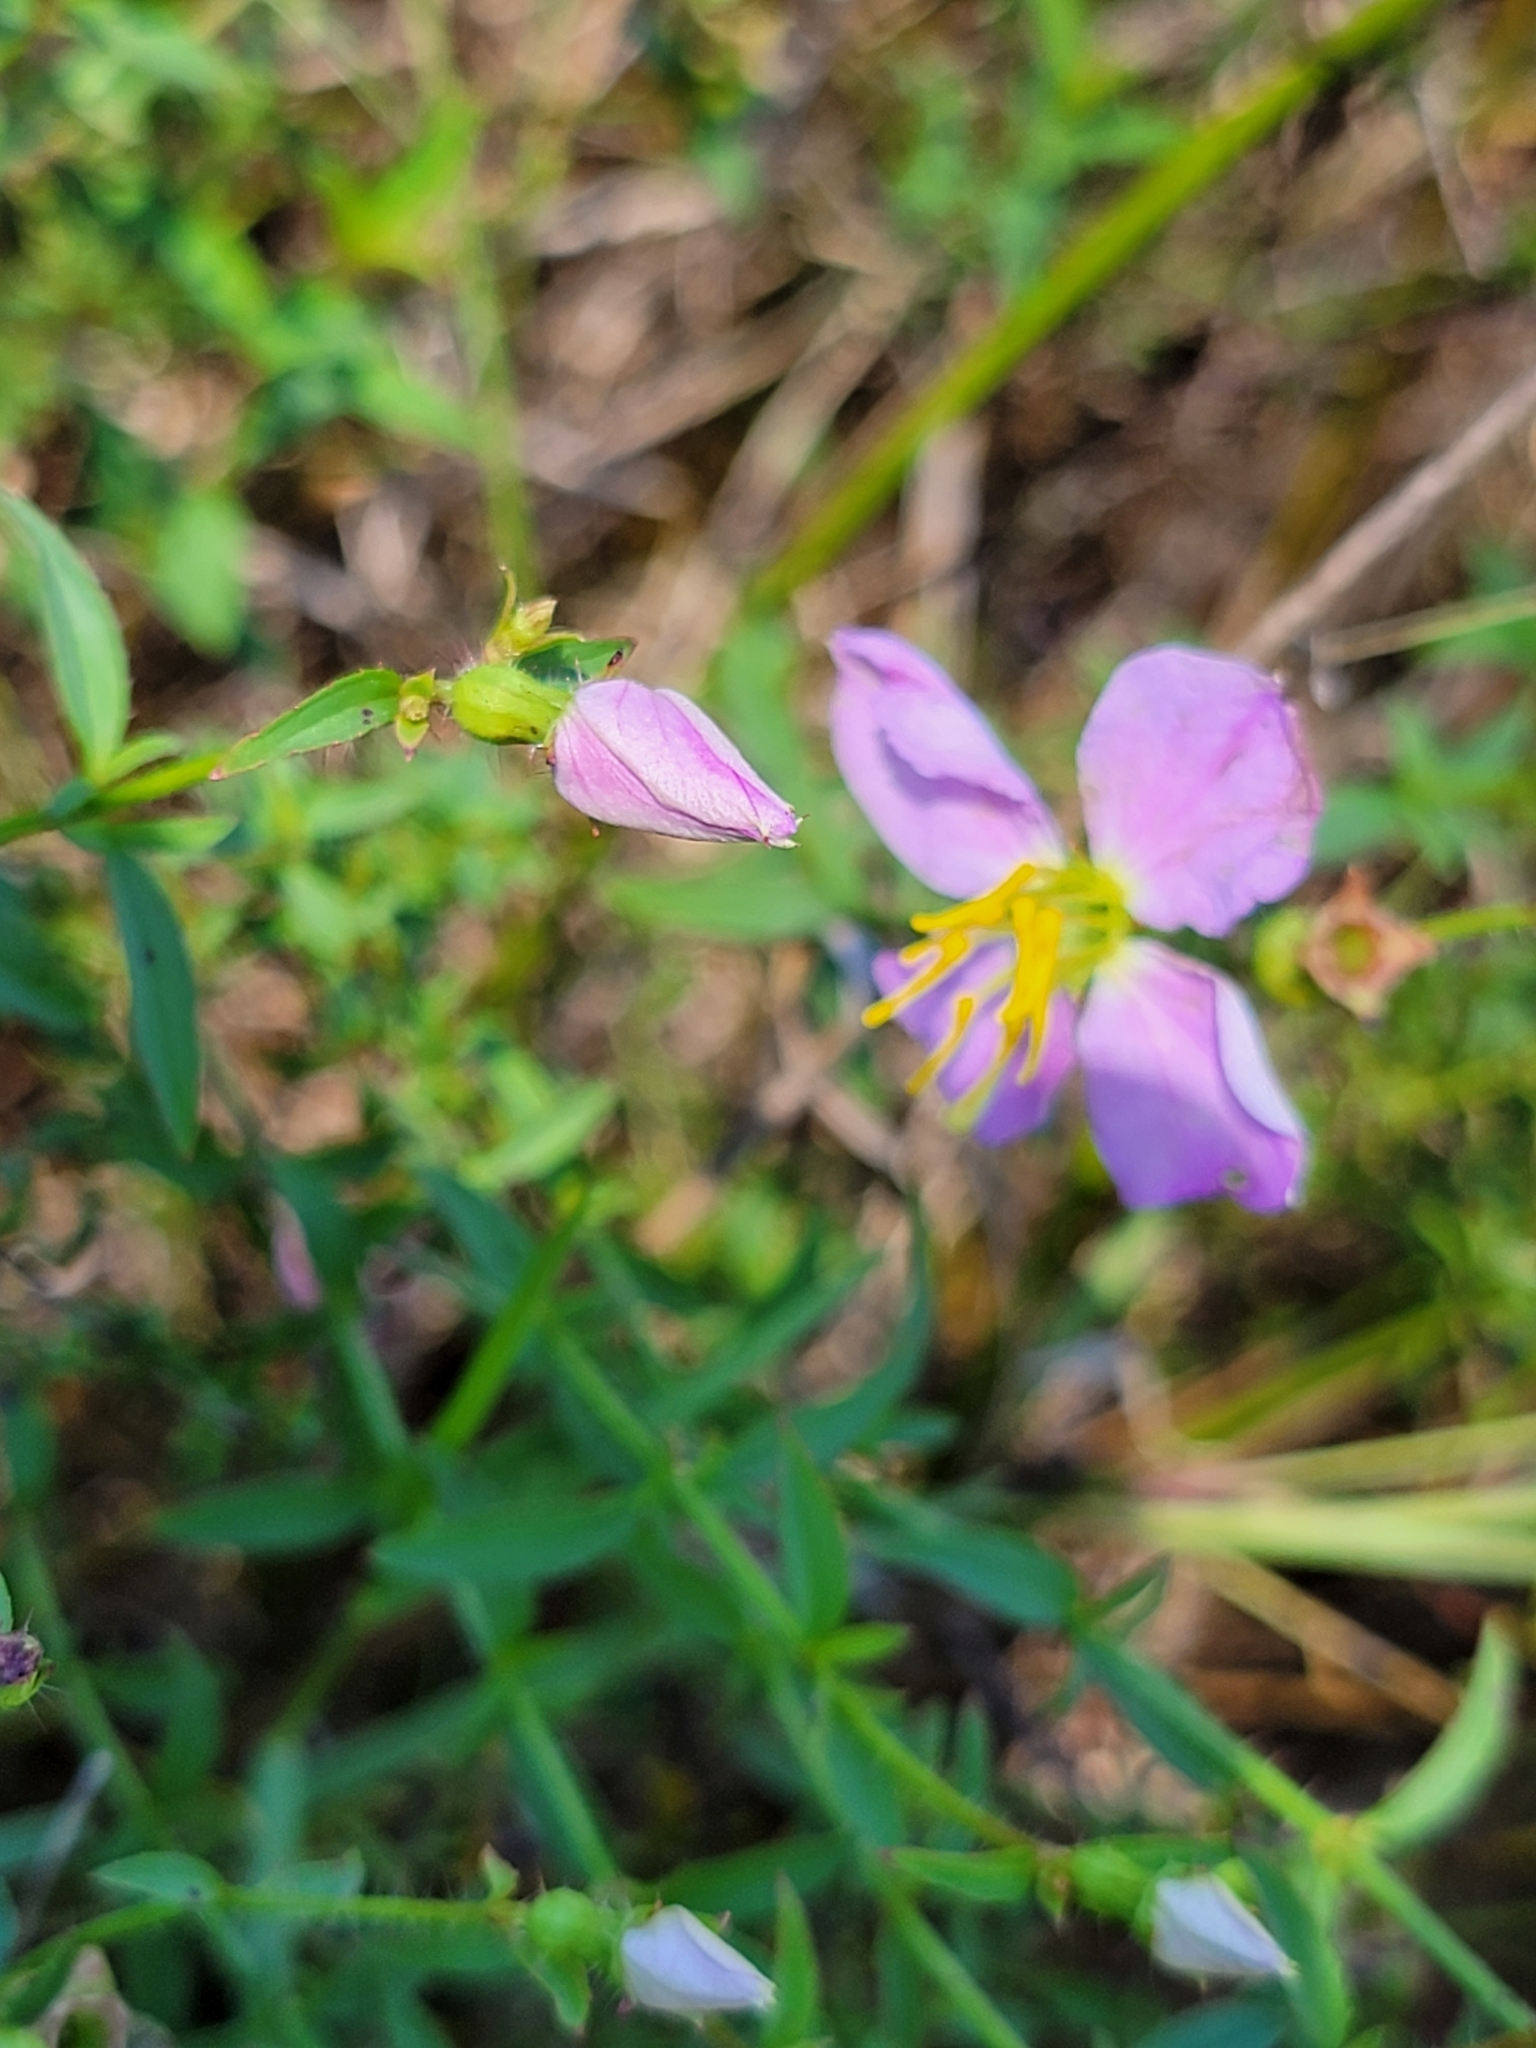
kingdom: Plantae
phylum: Tracheophyta
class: Magnoliopsida
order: Myrtales
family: Melastomataceae
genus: Rhexia
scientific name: Rhexia mariana
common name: Dull meadow-pitcher
